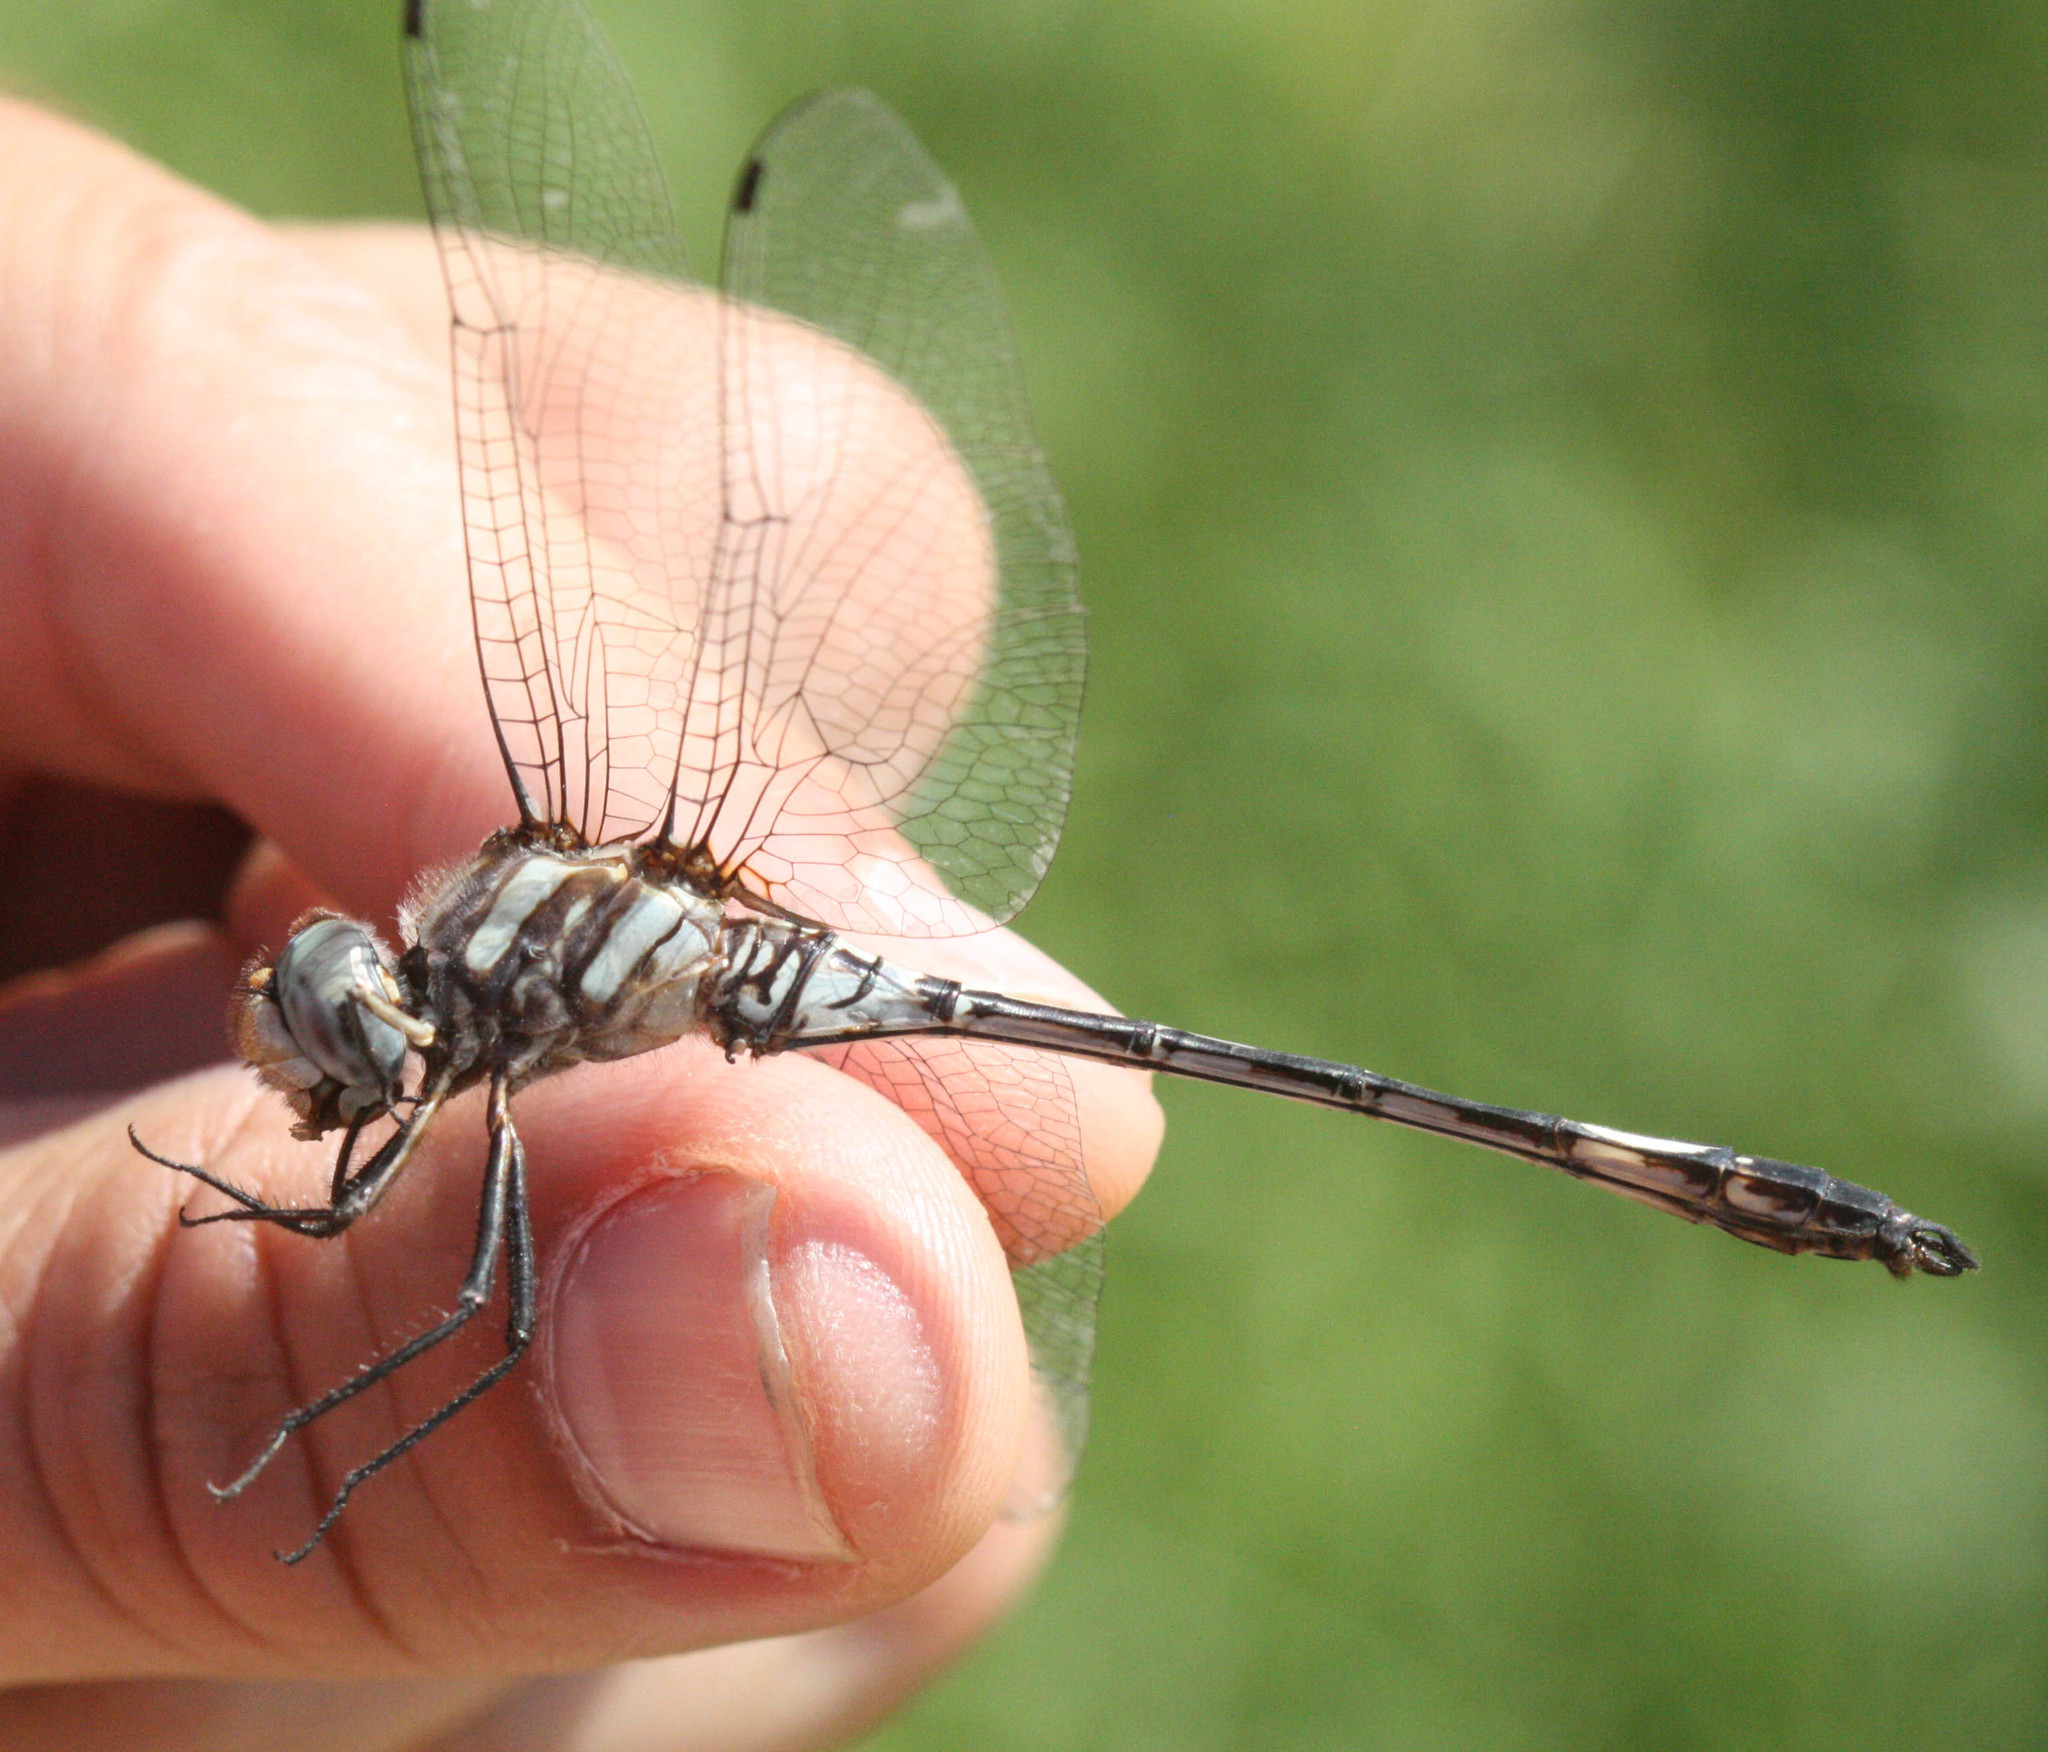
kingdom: Animalia
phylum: Arthropoda
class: Insecta
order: Odonata
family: Libellulidae
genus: Brechmorhoga
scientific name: Brechmorhoga mendax
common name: Pale-faced clubskimmer
